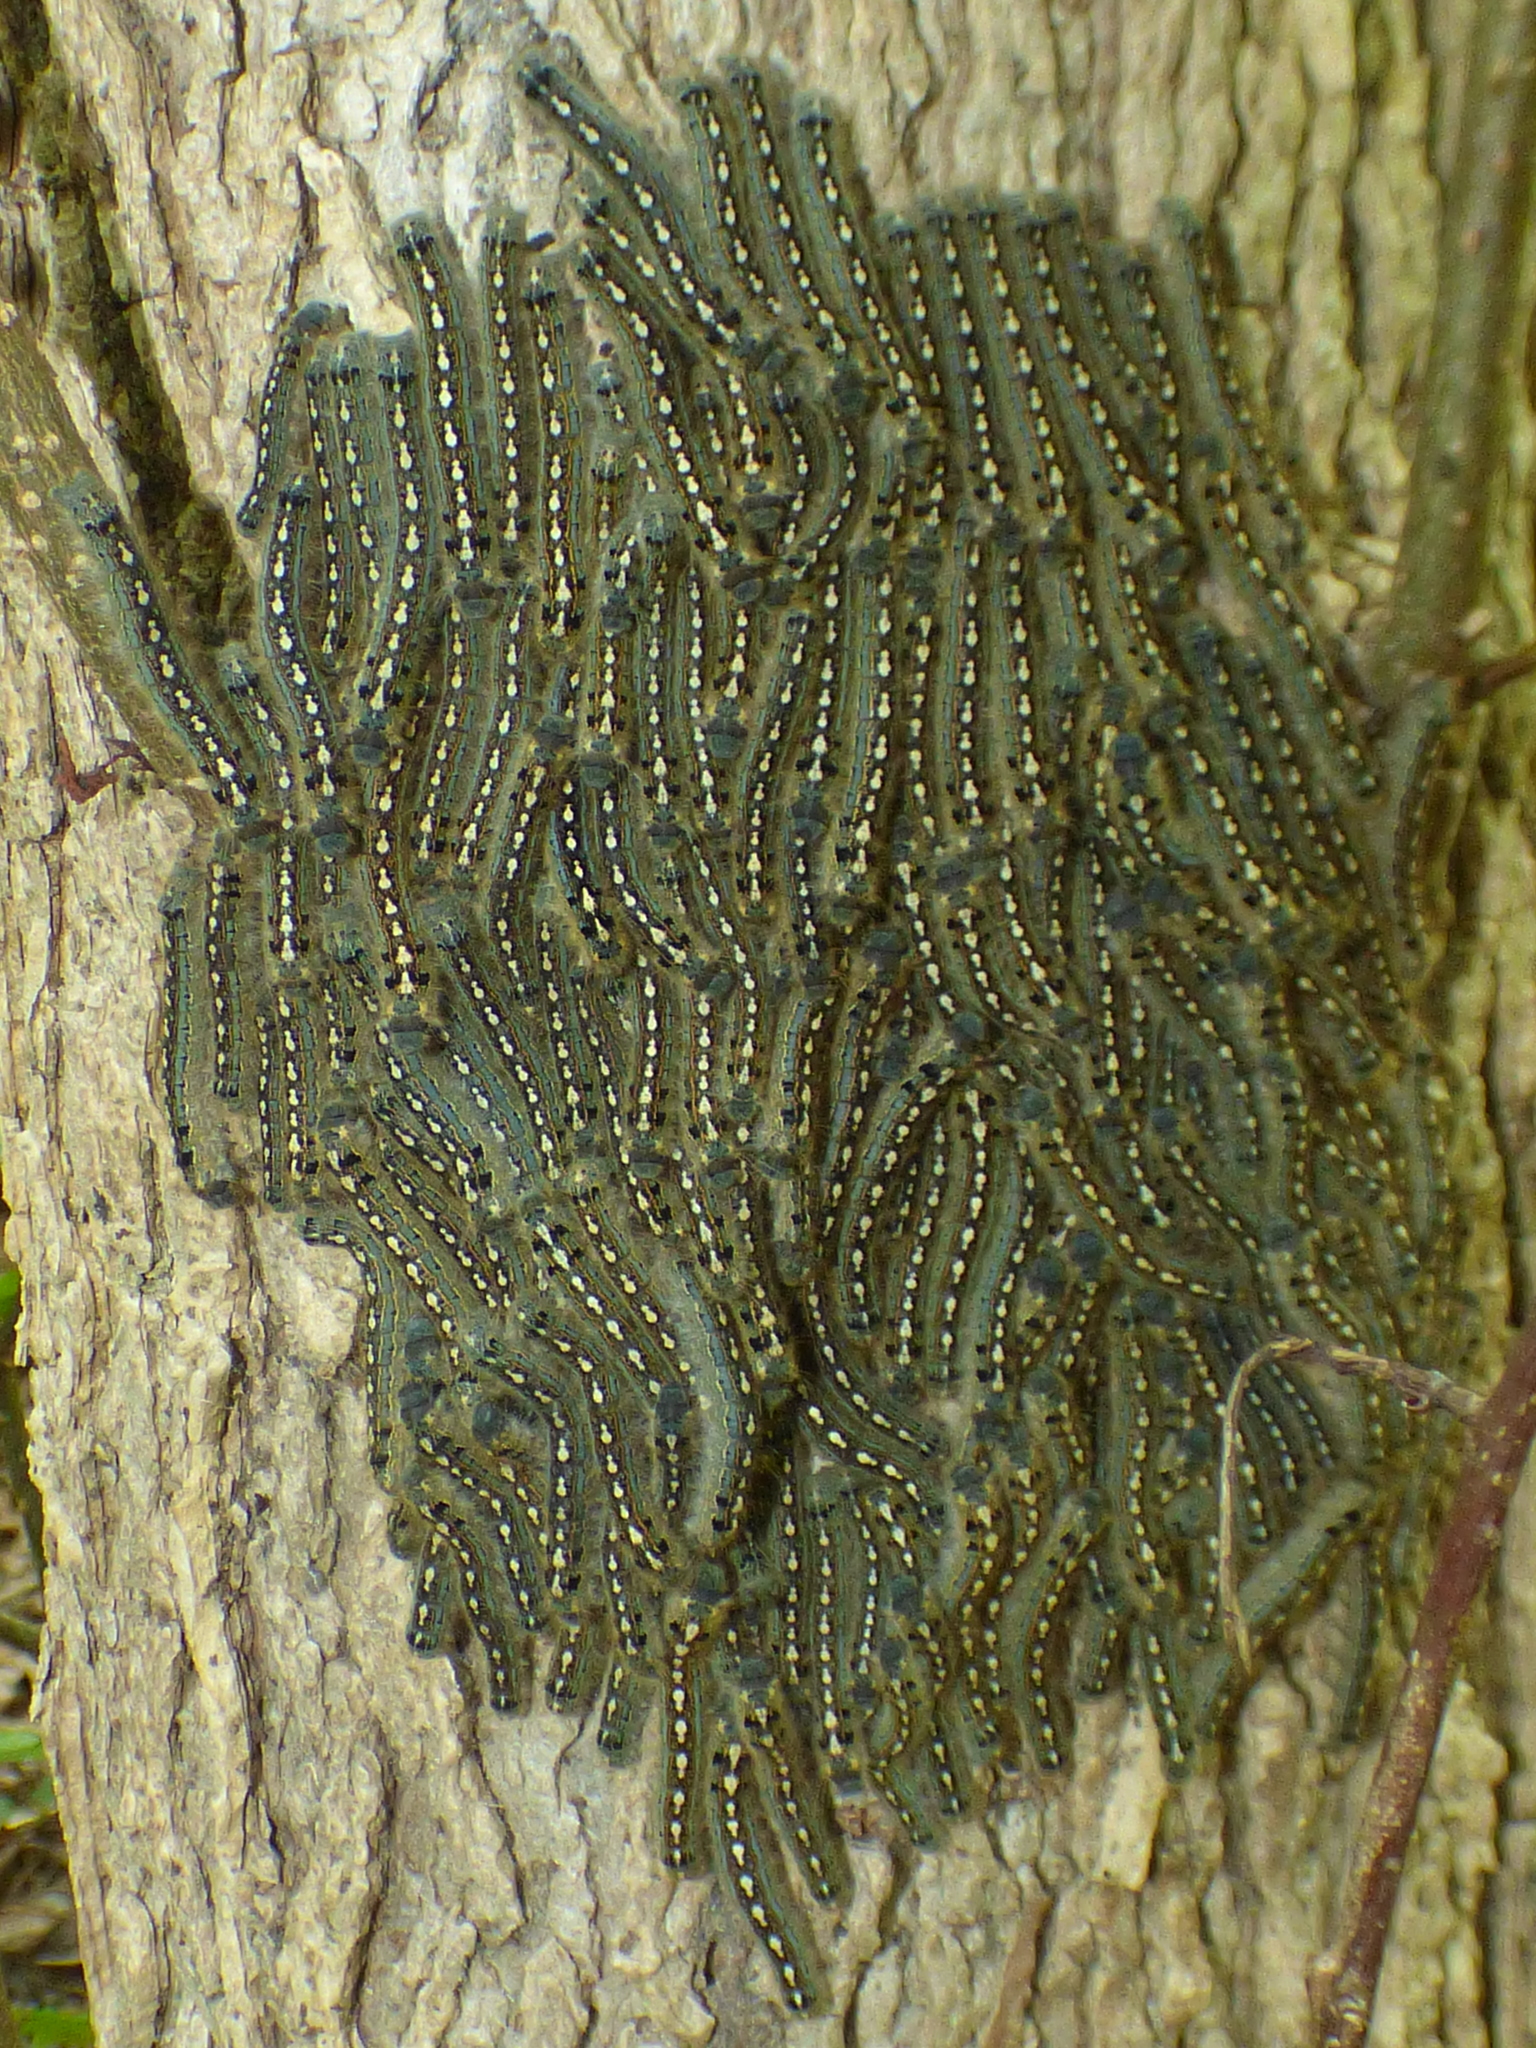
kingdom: Animalia
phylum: Arthropoda
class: Insecta
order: Lepidoptera
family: Lasiocampidae
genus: Malacosoma
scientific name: Malacosoma disstria
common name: Forest tent caterpillar
